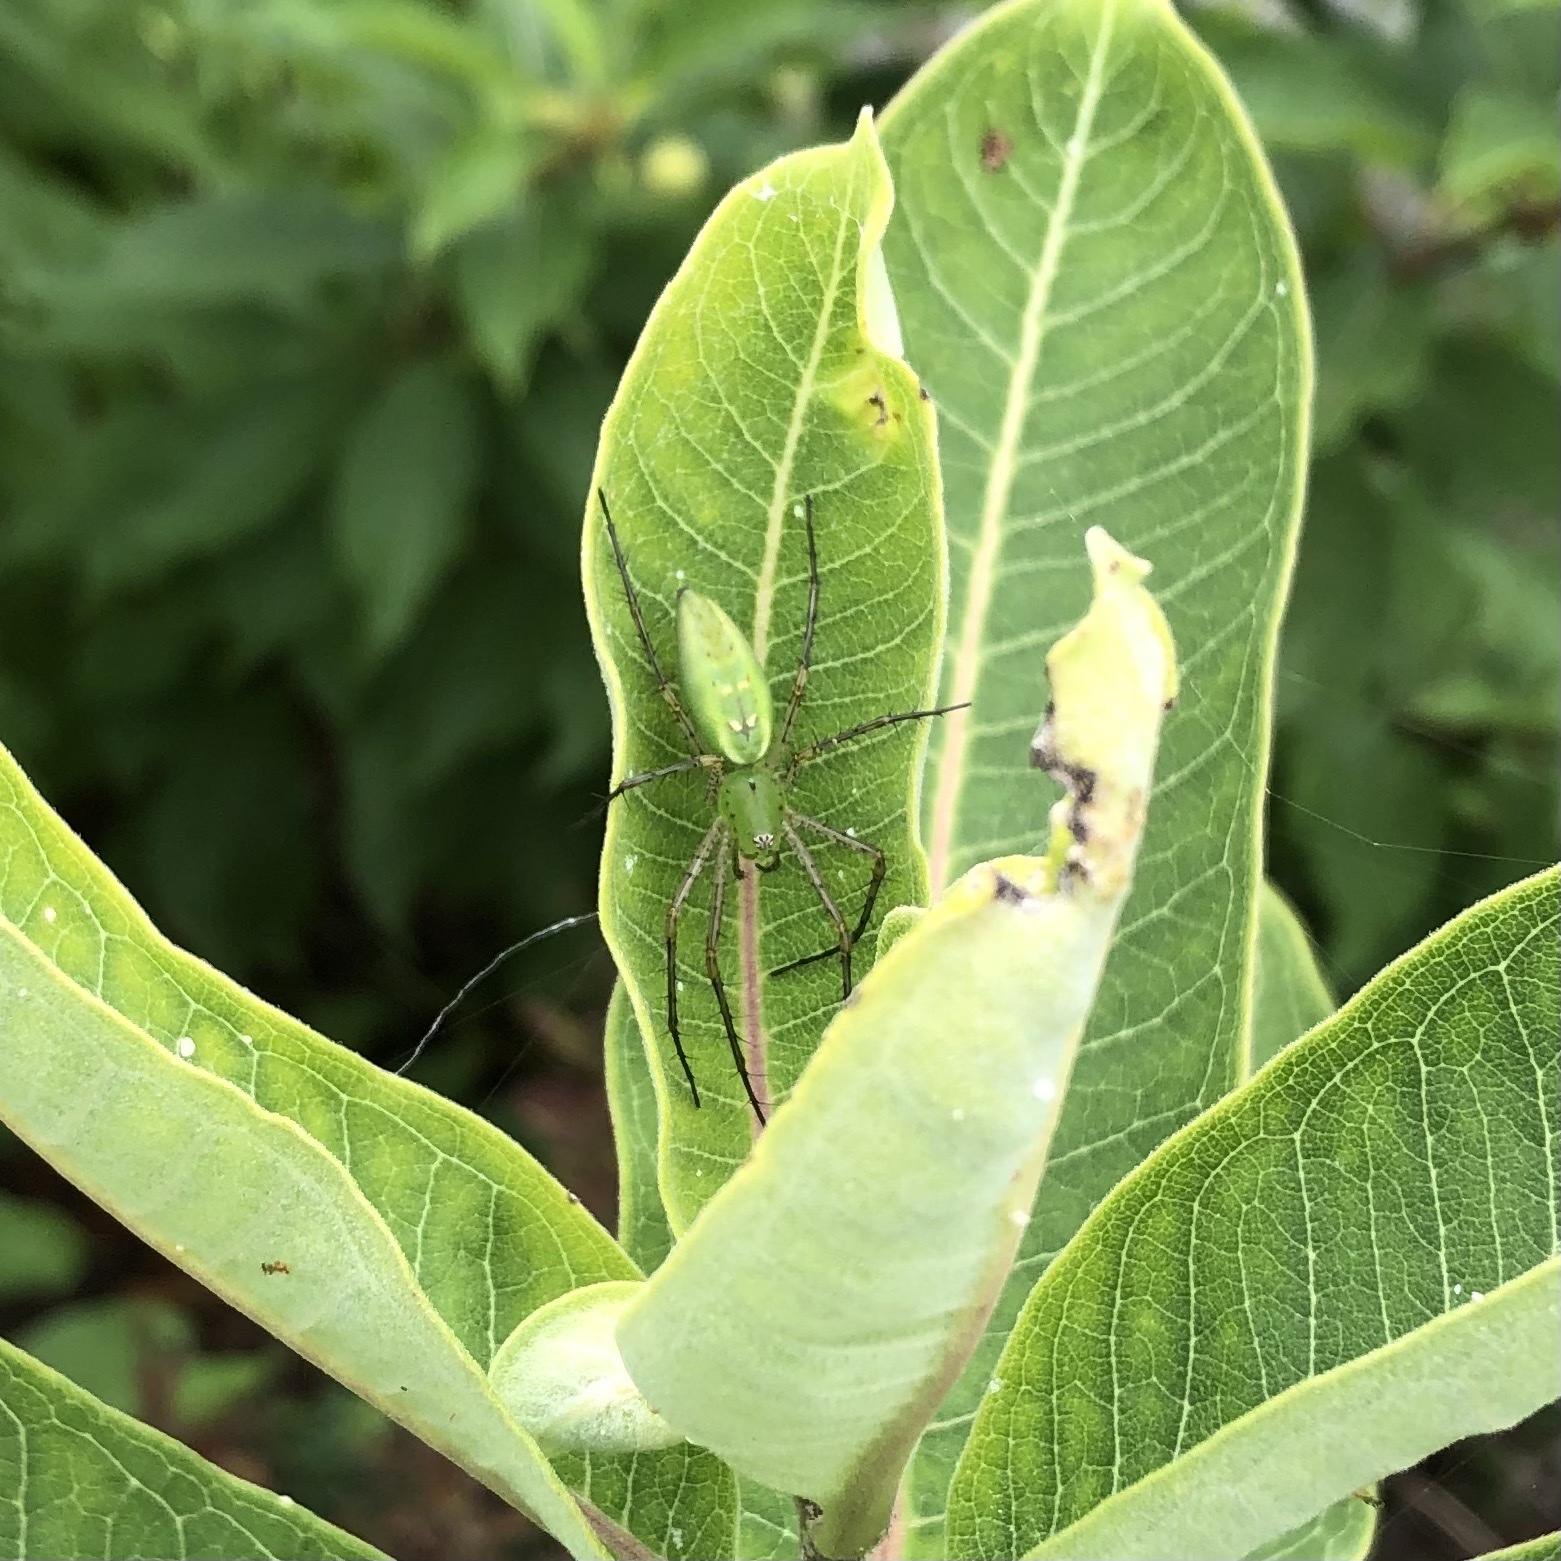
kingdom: Animalia
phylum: Arthropoda
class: Arachnida
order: Araneae
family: Oxyopidae
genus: Peucetia
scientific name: Peucetia viridans
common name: Lynx spiders
